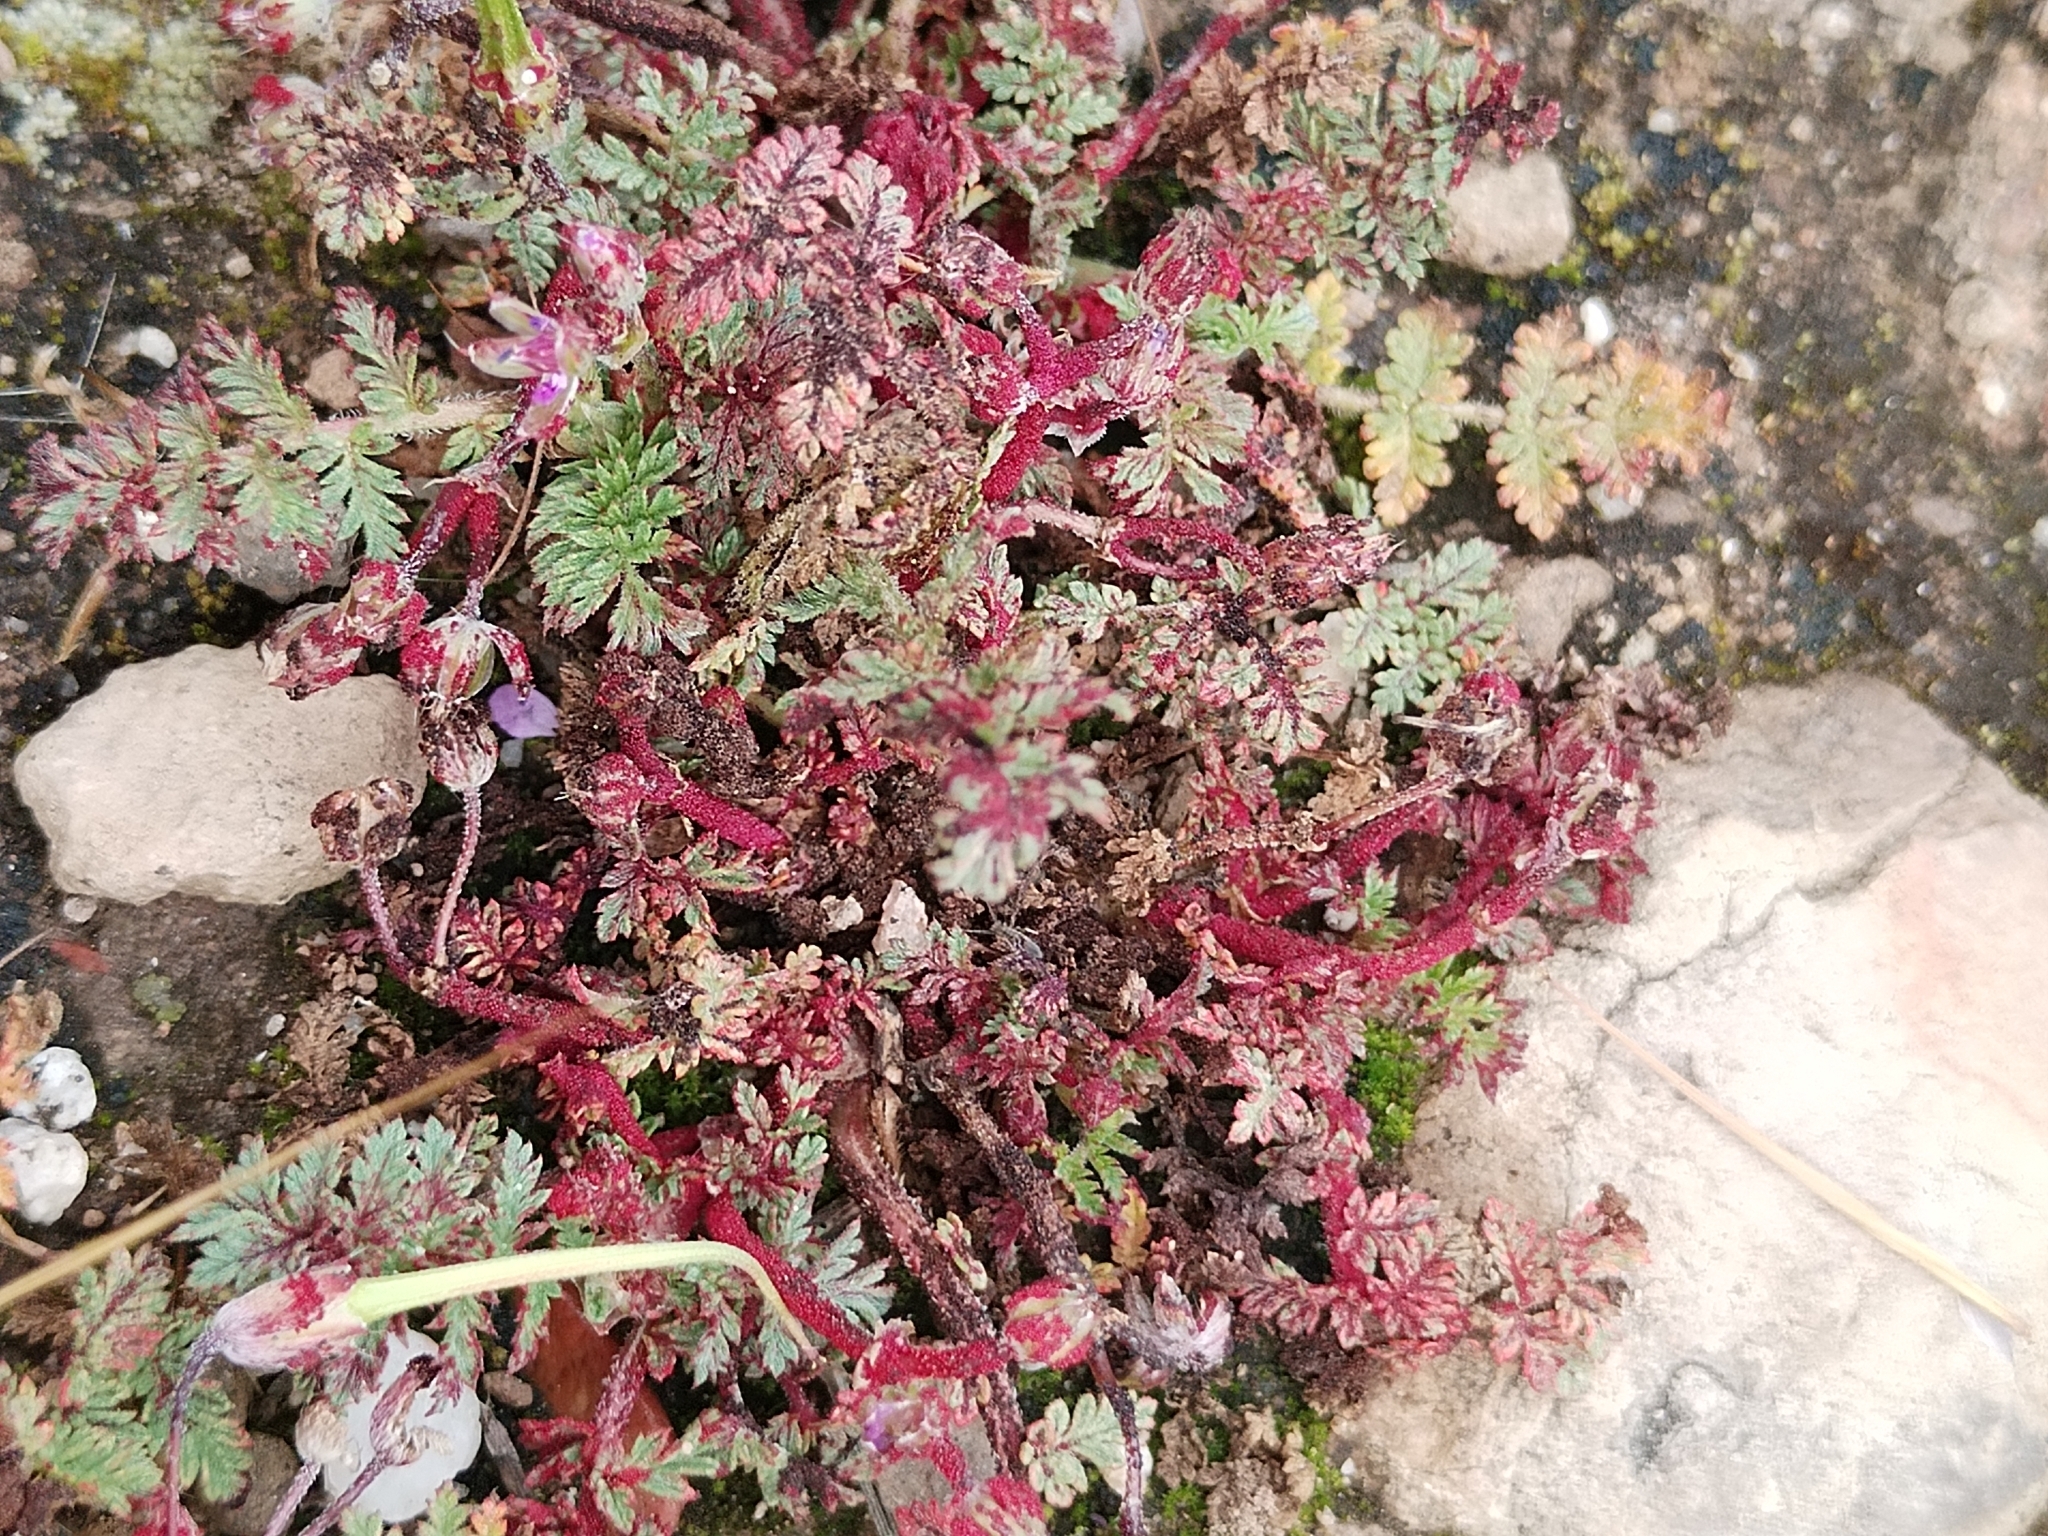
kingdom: Fungi
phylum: Chytridiomycota
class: Chytridiomycetes
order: Chytridiales
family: Synchytriaceae
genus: Synchytrium
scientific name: Synchytrium papillatum
